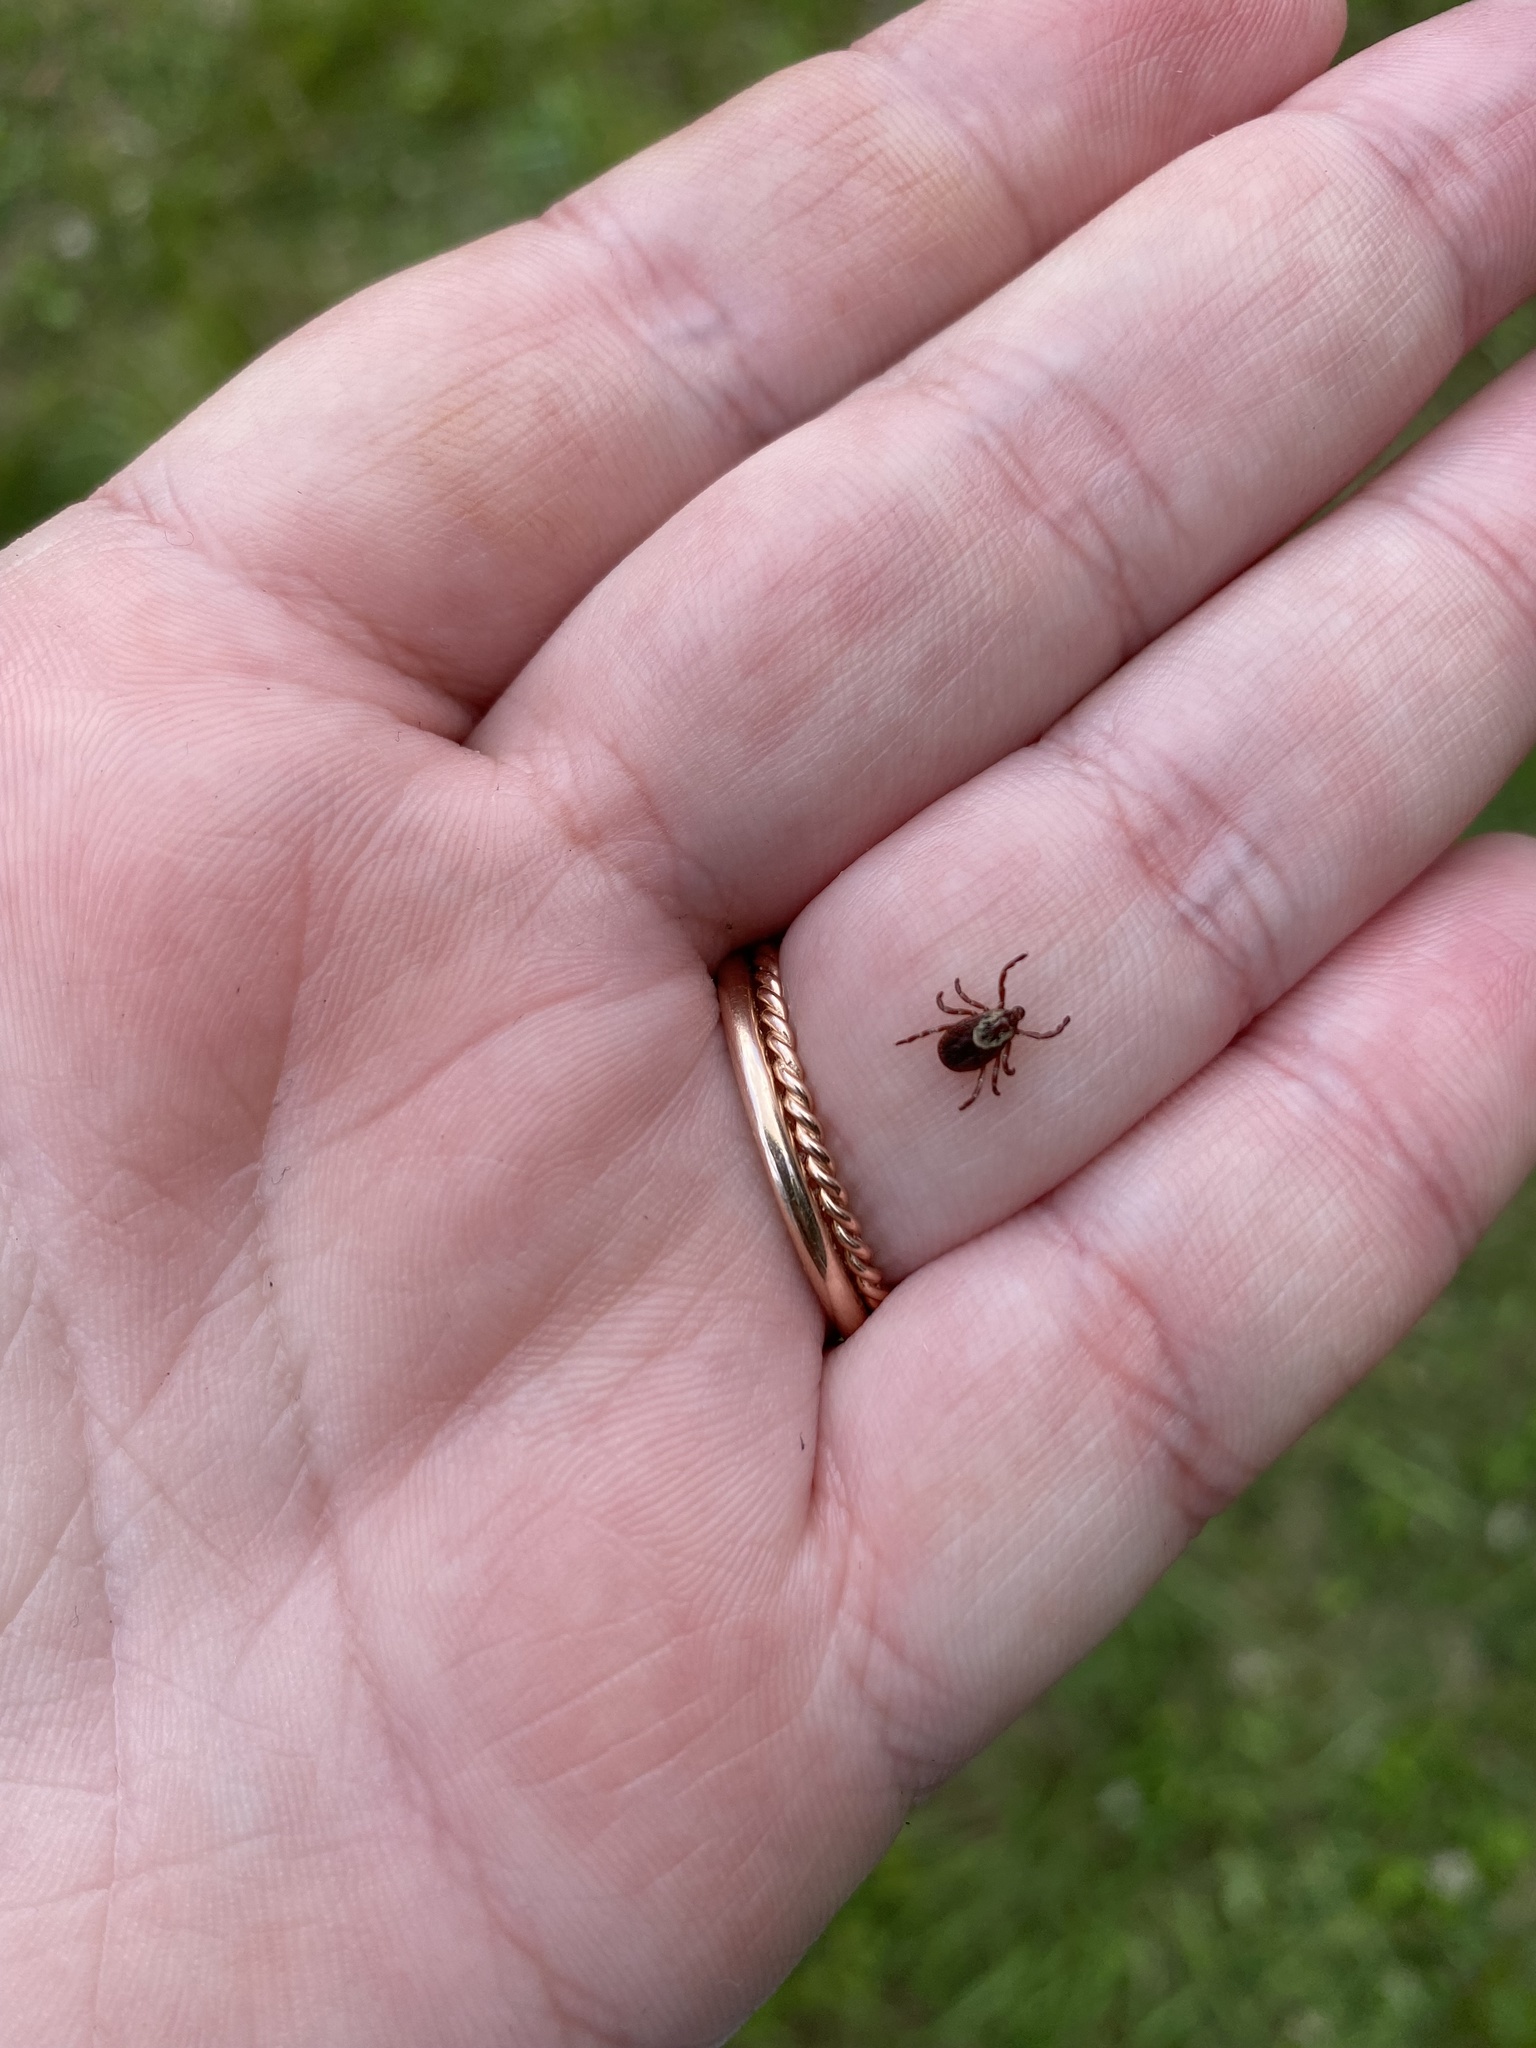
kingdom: Animalia
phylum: Arthropoda
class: Arachnida
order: Ixodida
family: Ixodidae
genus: Dermacentor
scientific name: Dermacentor variabilis
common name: American dog tick
